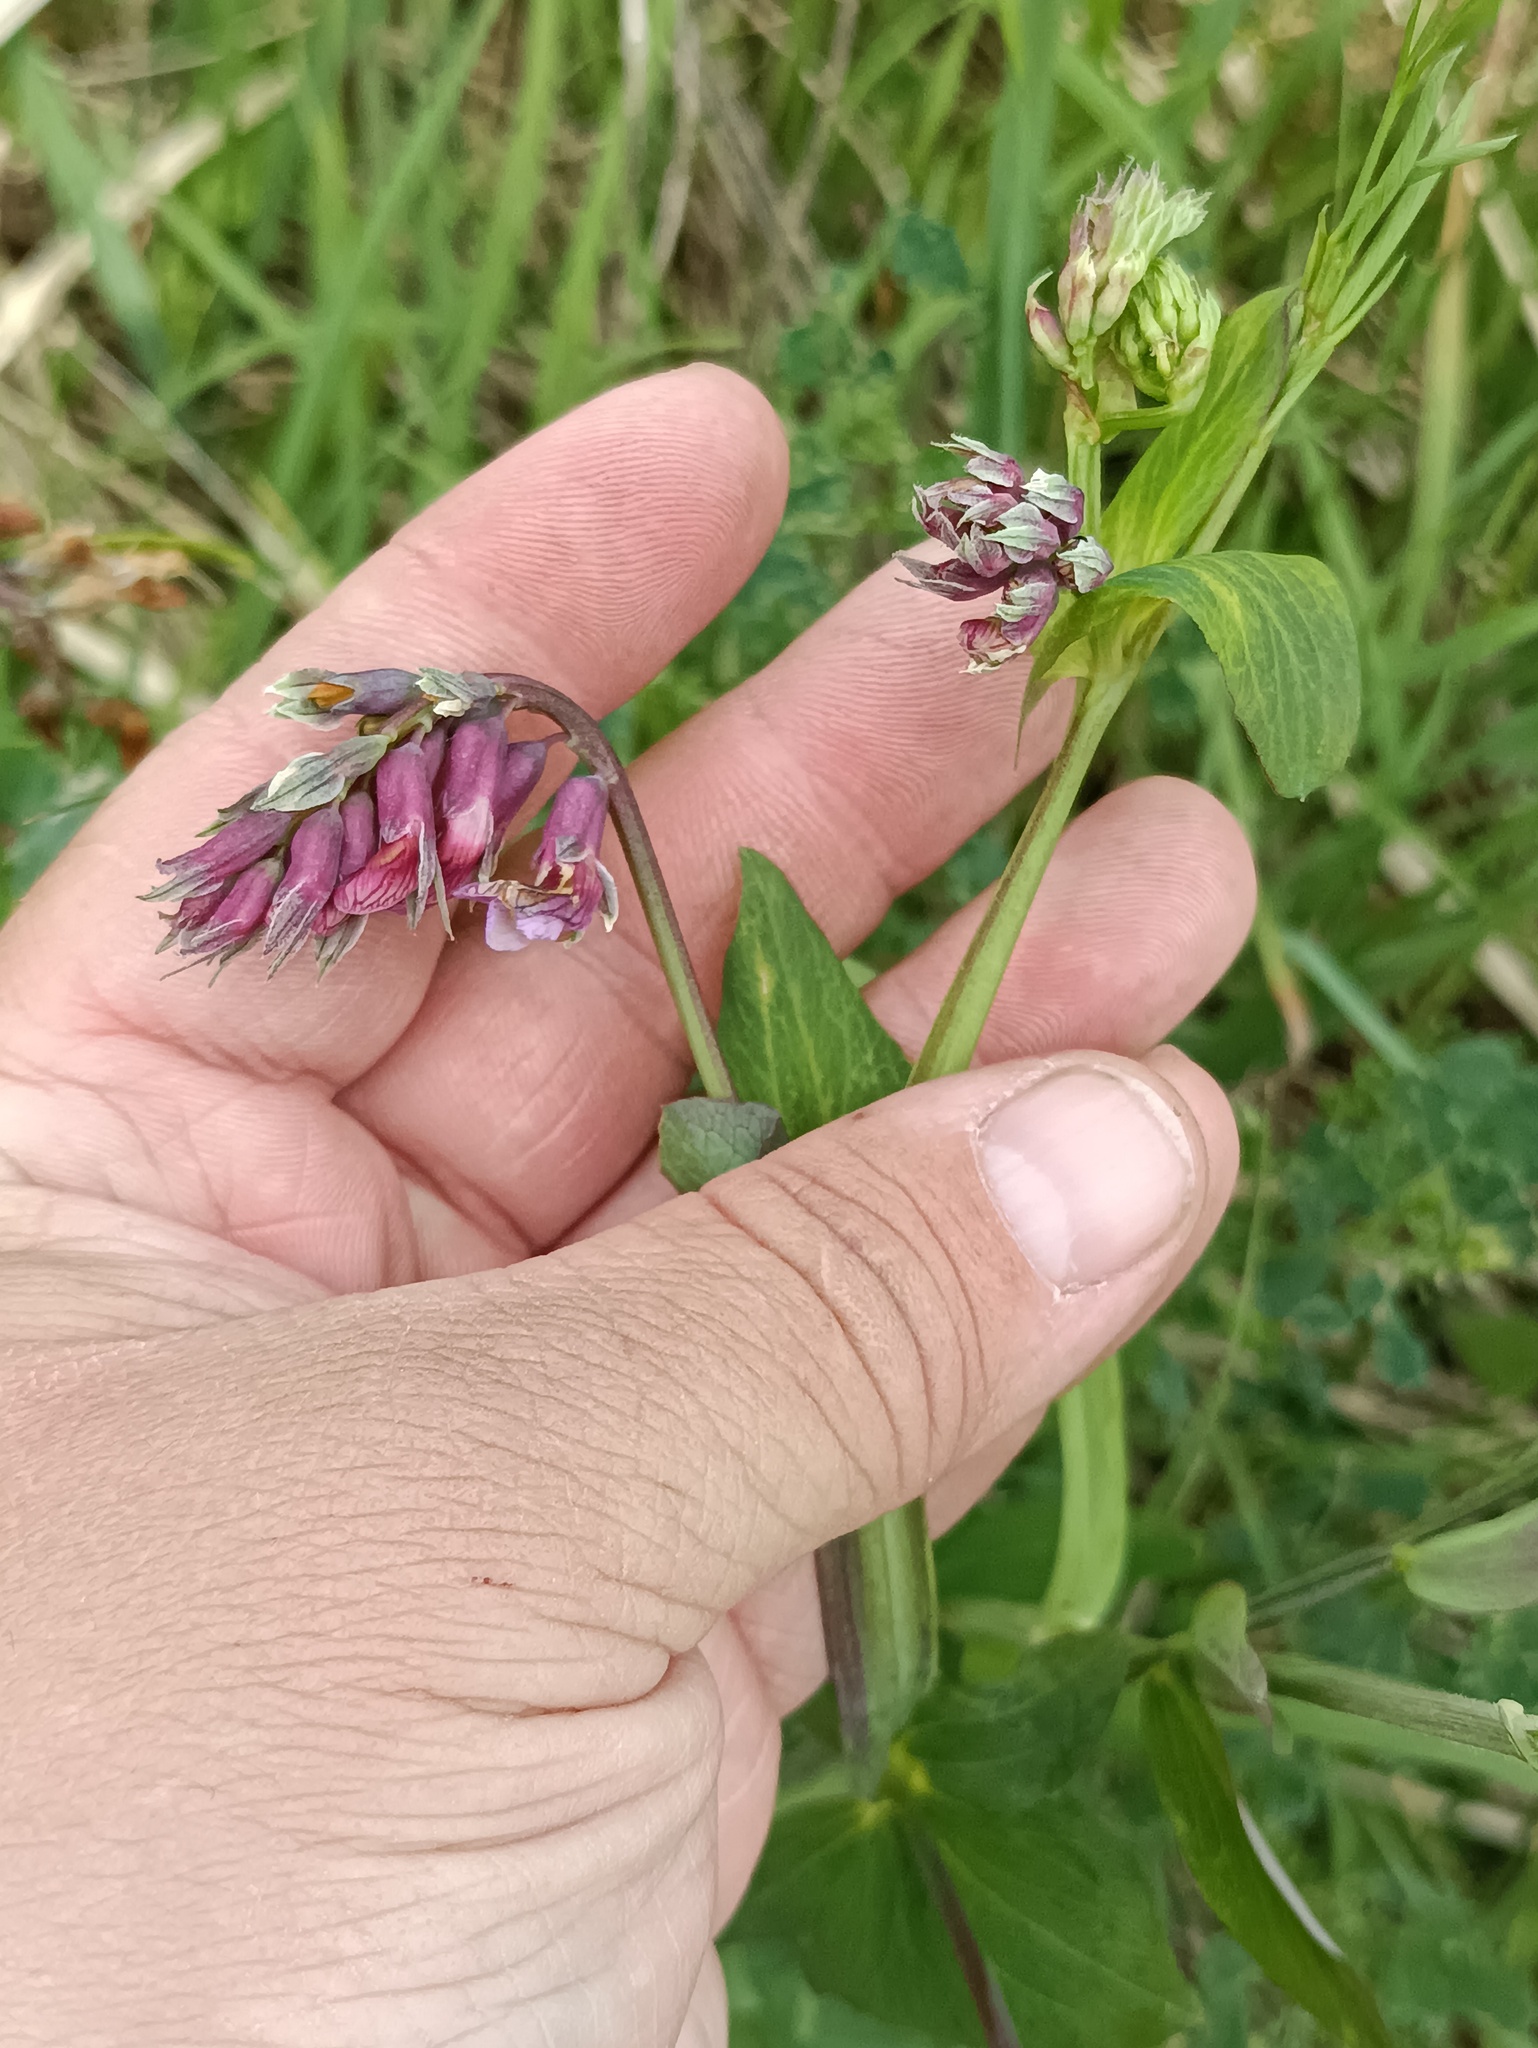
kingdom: Plantae
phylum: Tracheophyta
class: Magnoliopsida
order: Fabales
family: Fabaceae
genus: Lathyrus
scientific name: Lathyrus pisiformis
